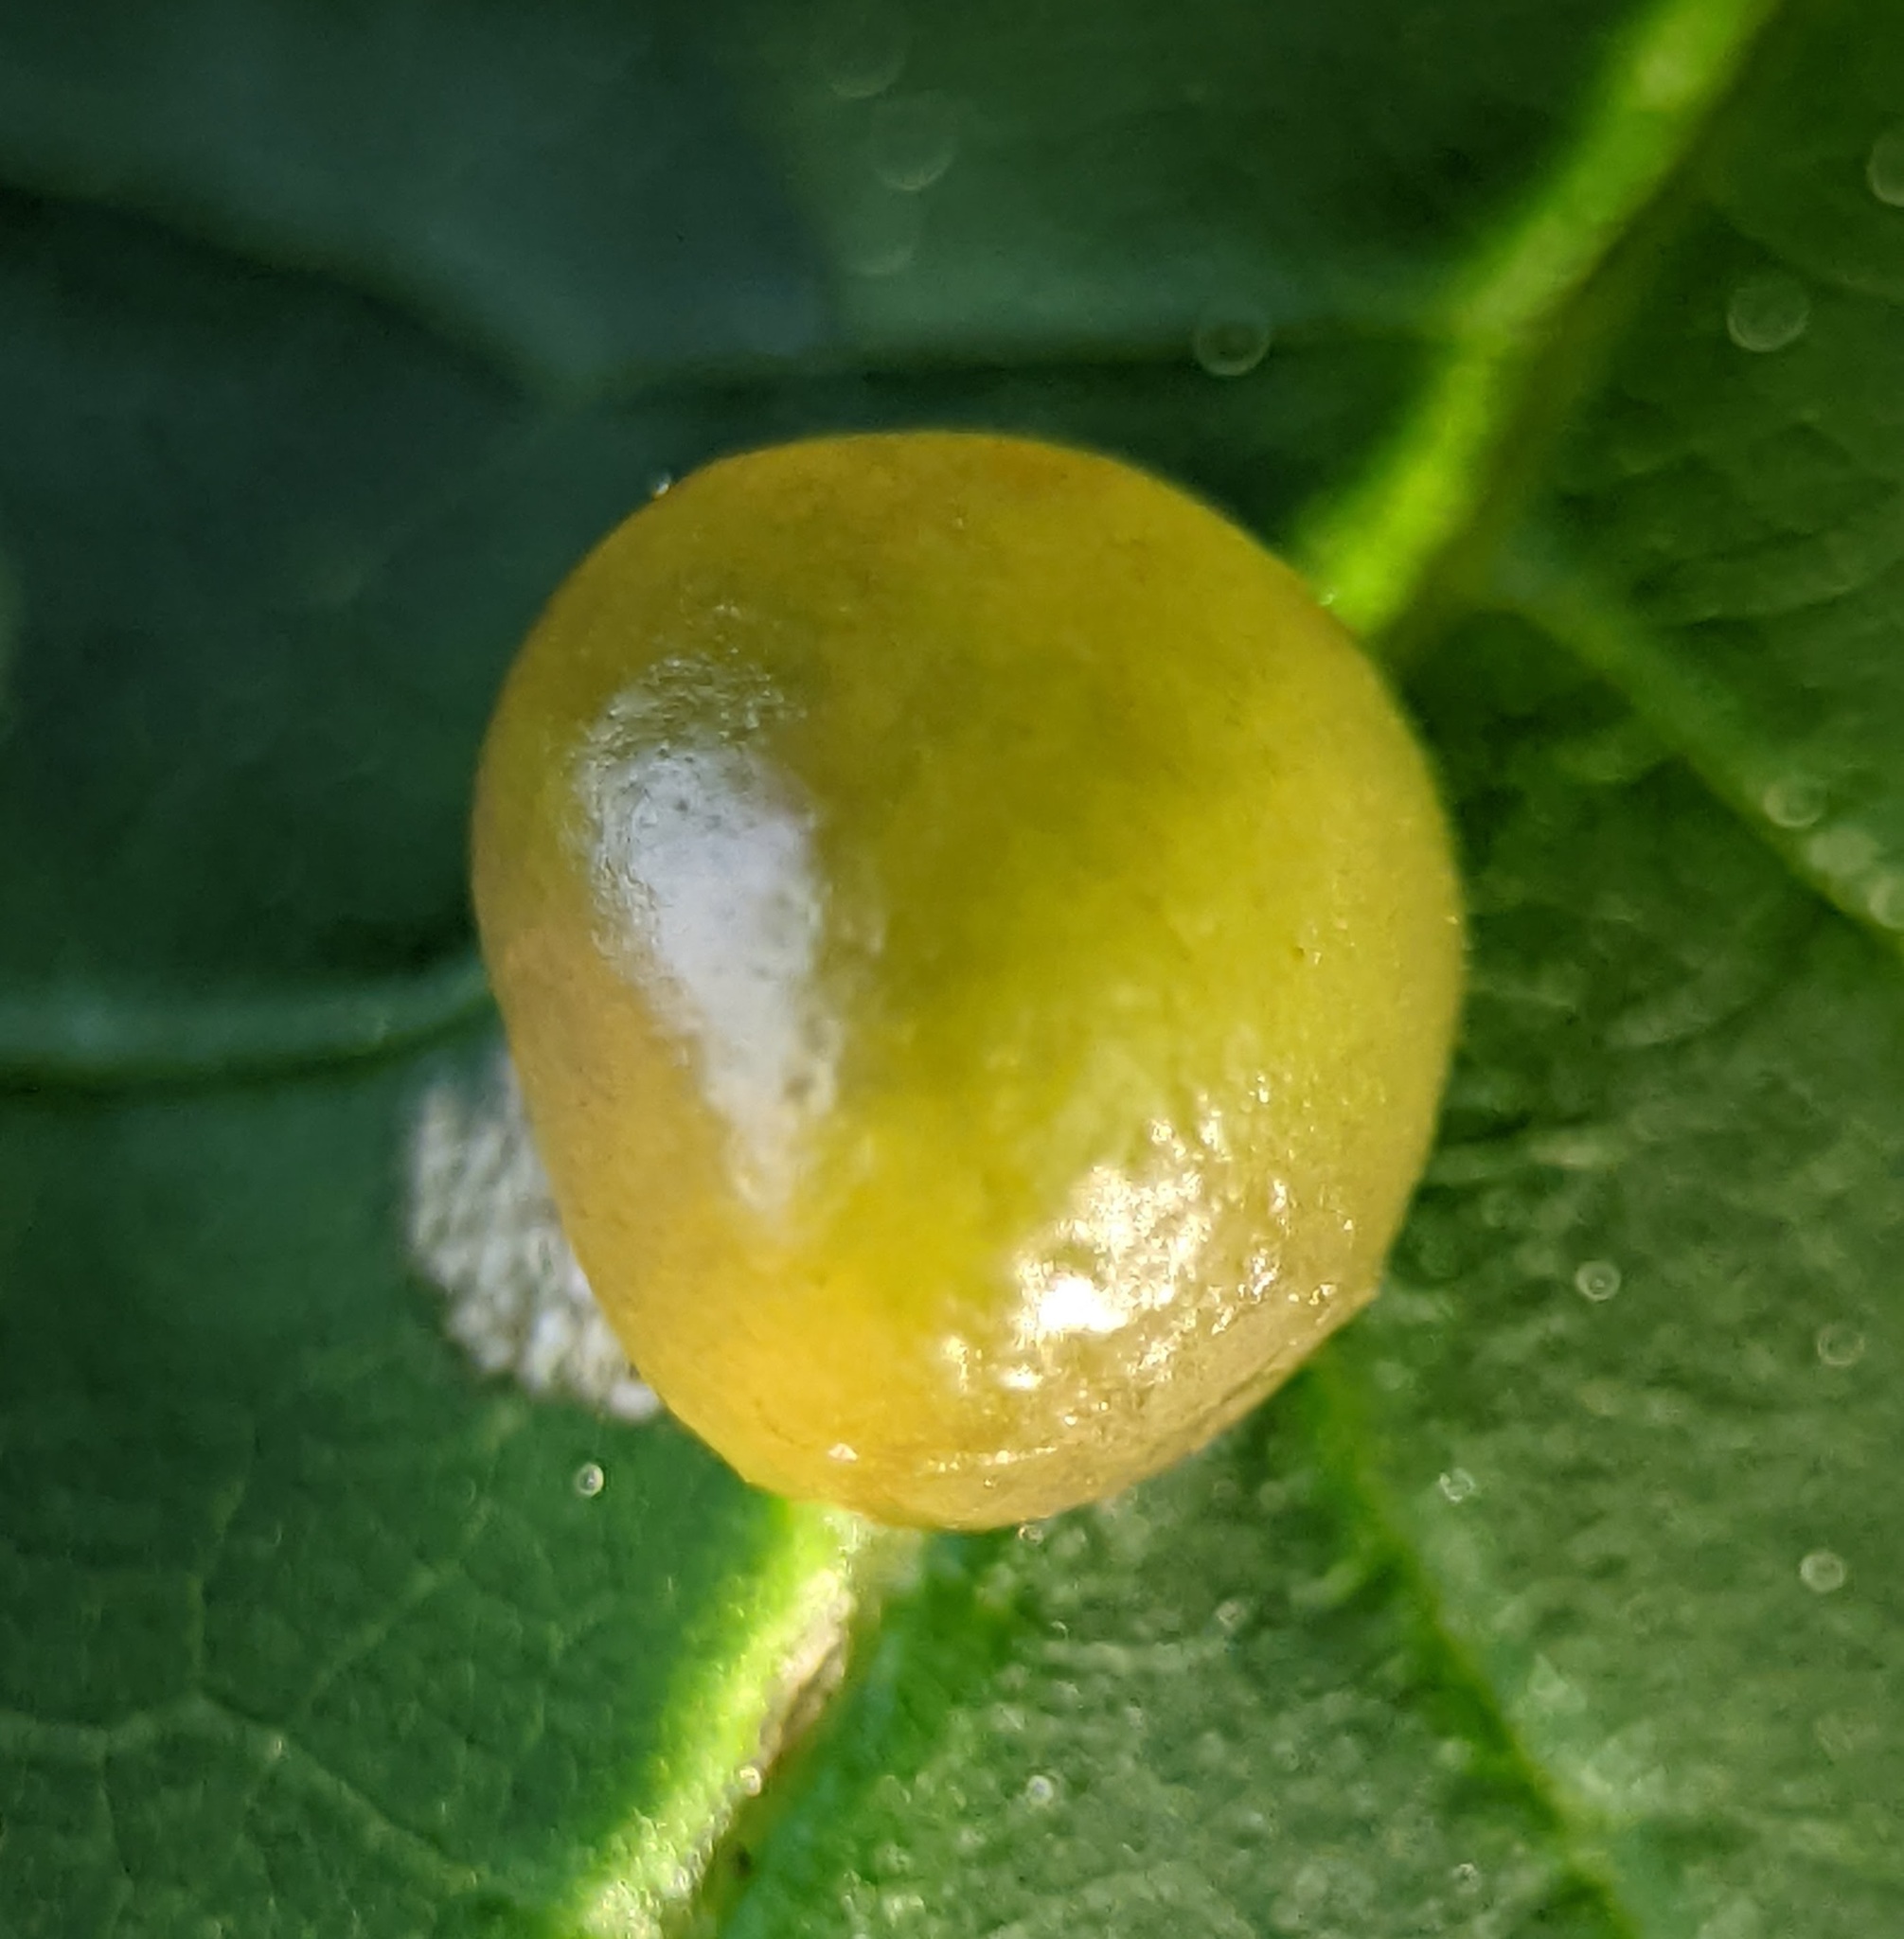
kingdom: Animalia
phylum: Arthropoda
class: Insecta
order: Diptera
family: Cecidomyiidae
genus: Dasineura
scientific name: Dasineura pellex
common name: Ash bullet gall midge
